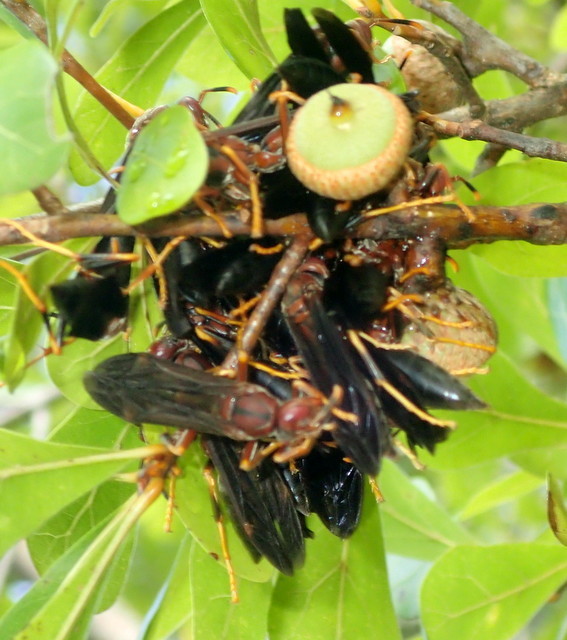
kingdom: Animalia
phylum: Arthropoda
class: Insecta
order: Hymenoptera
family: Eumenidae
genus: Polistes
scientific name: Polistes annularis
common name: Ringed paper wasp
